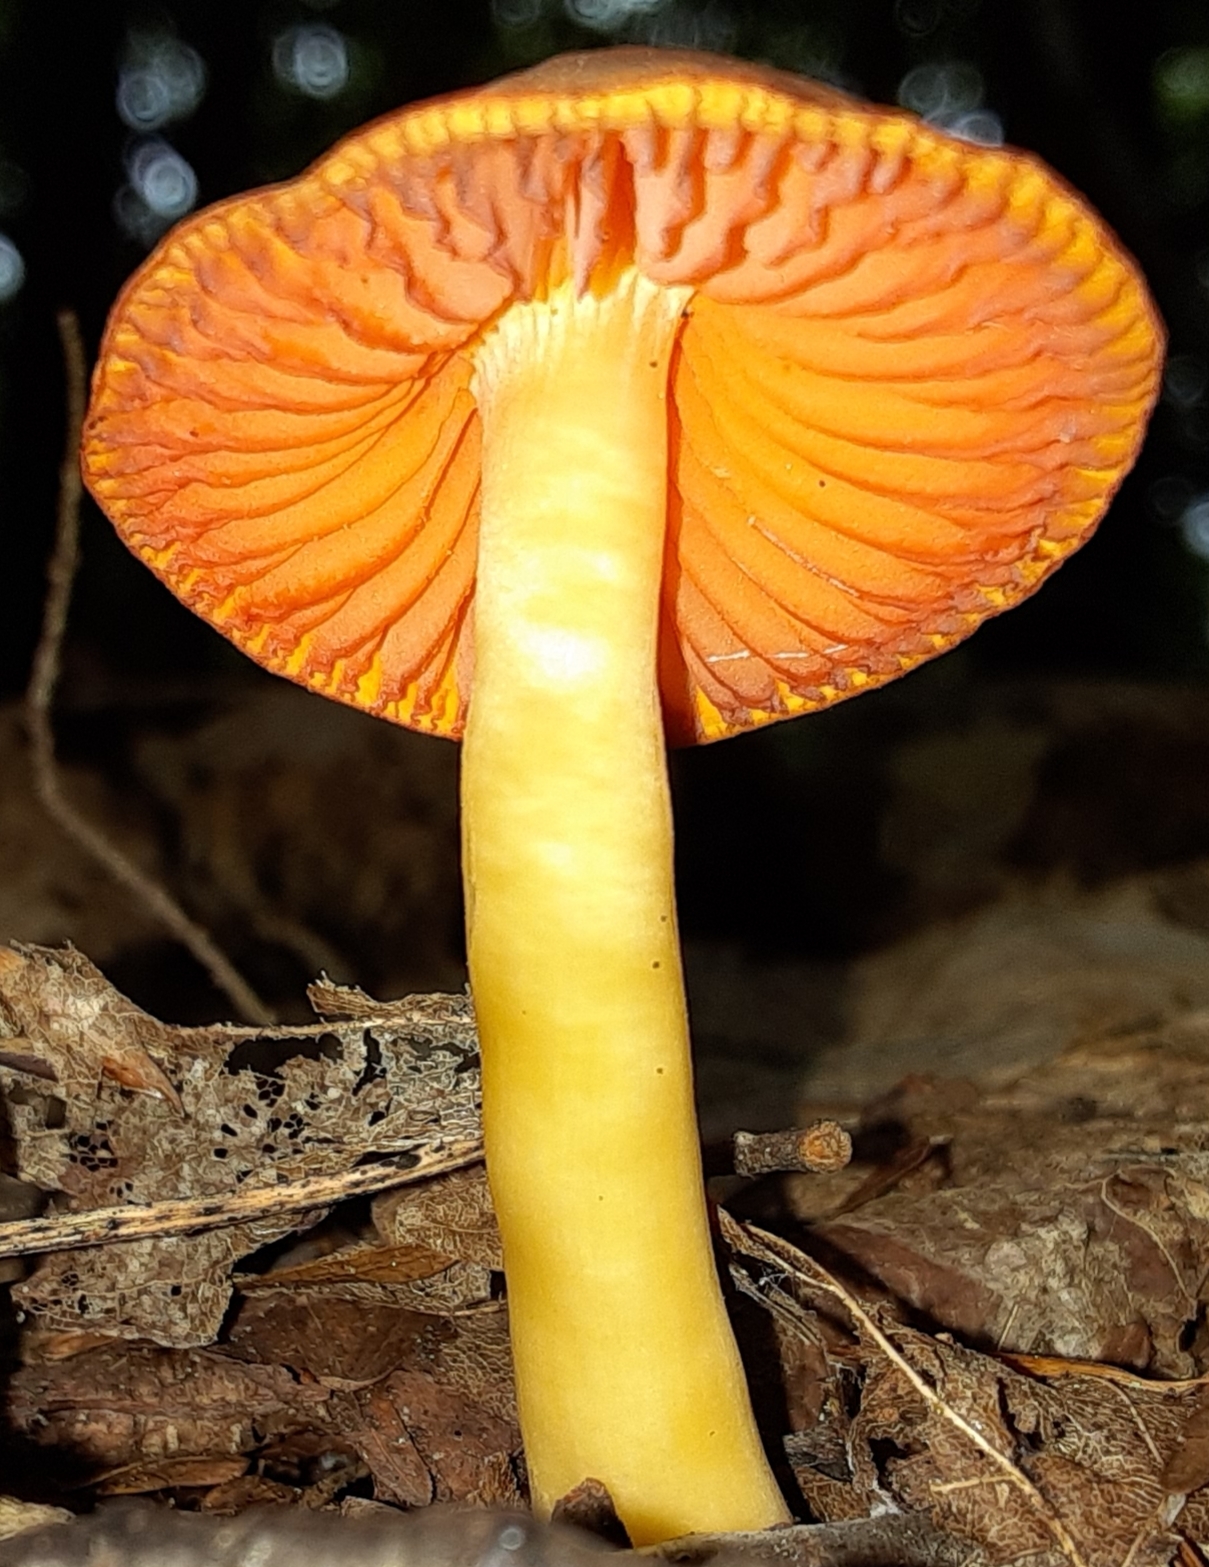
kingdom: Fungi
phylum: Basidiomycota
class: Agaricomycetes
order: Agaricales
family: Hygrophoraceae
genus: Humidicutis
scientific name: Humidicutis marginata
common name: Orange gilled waxcap
